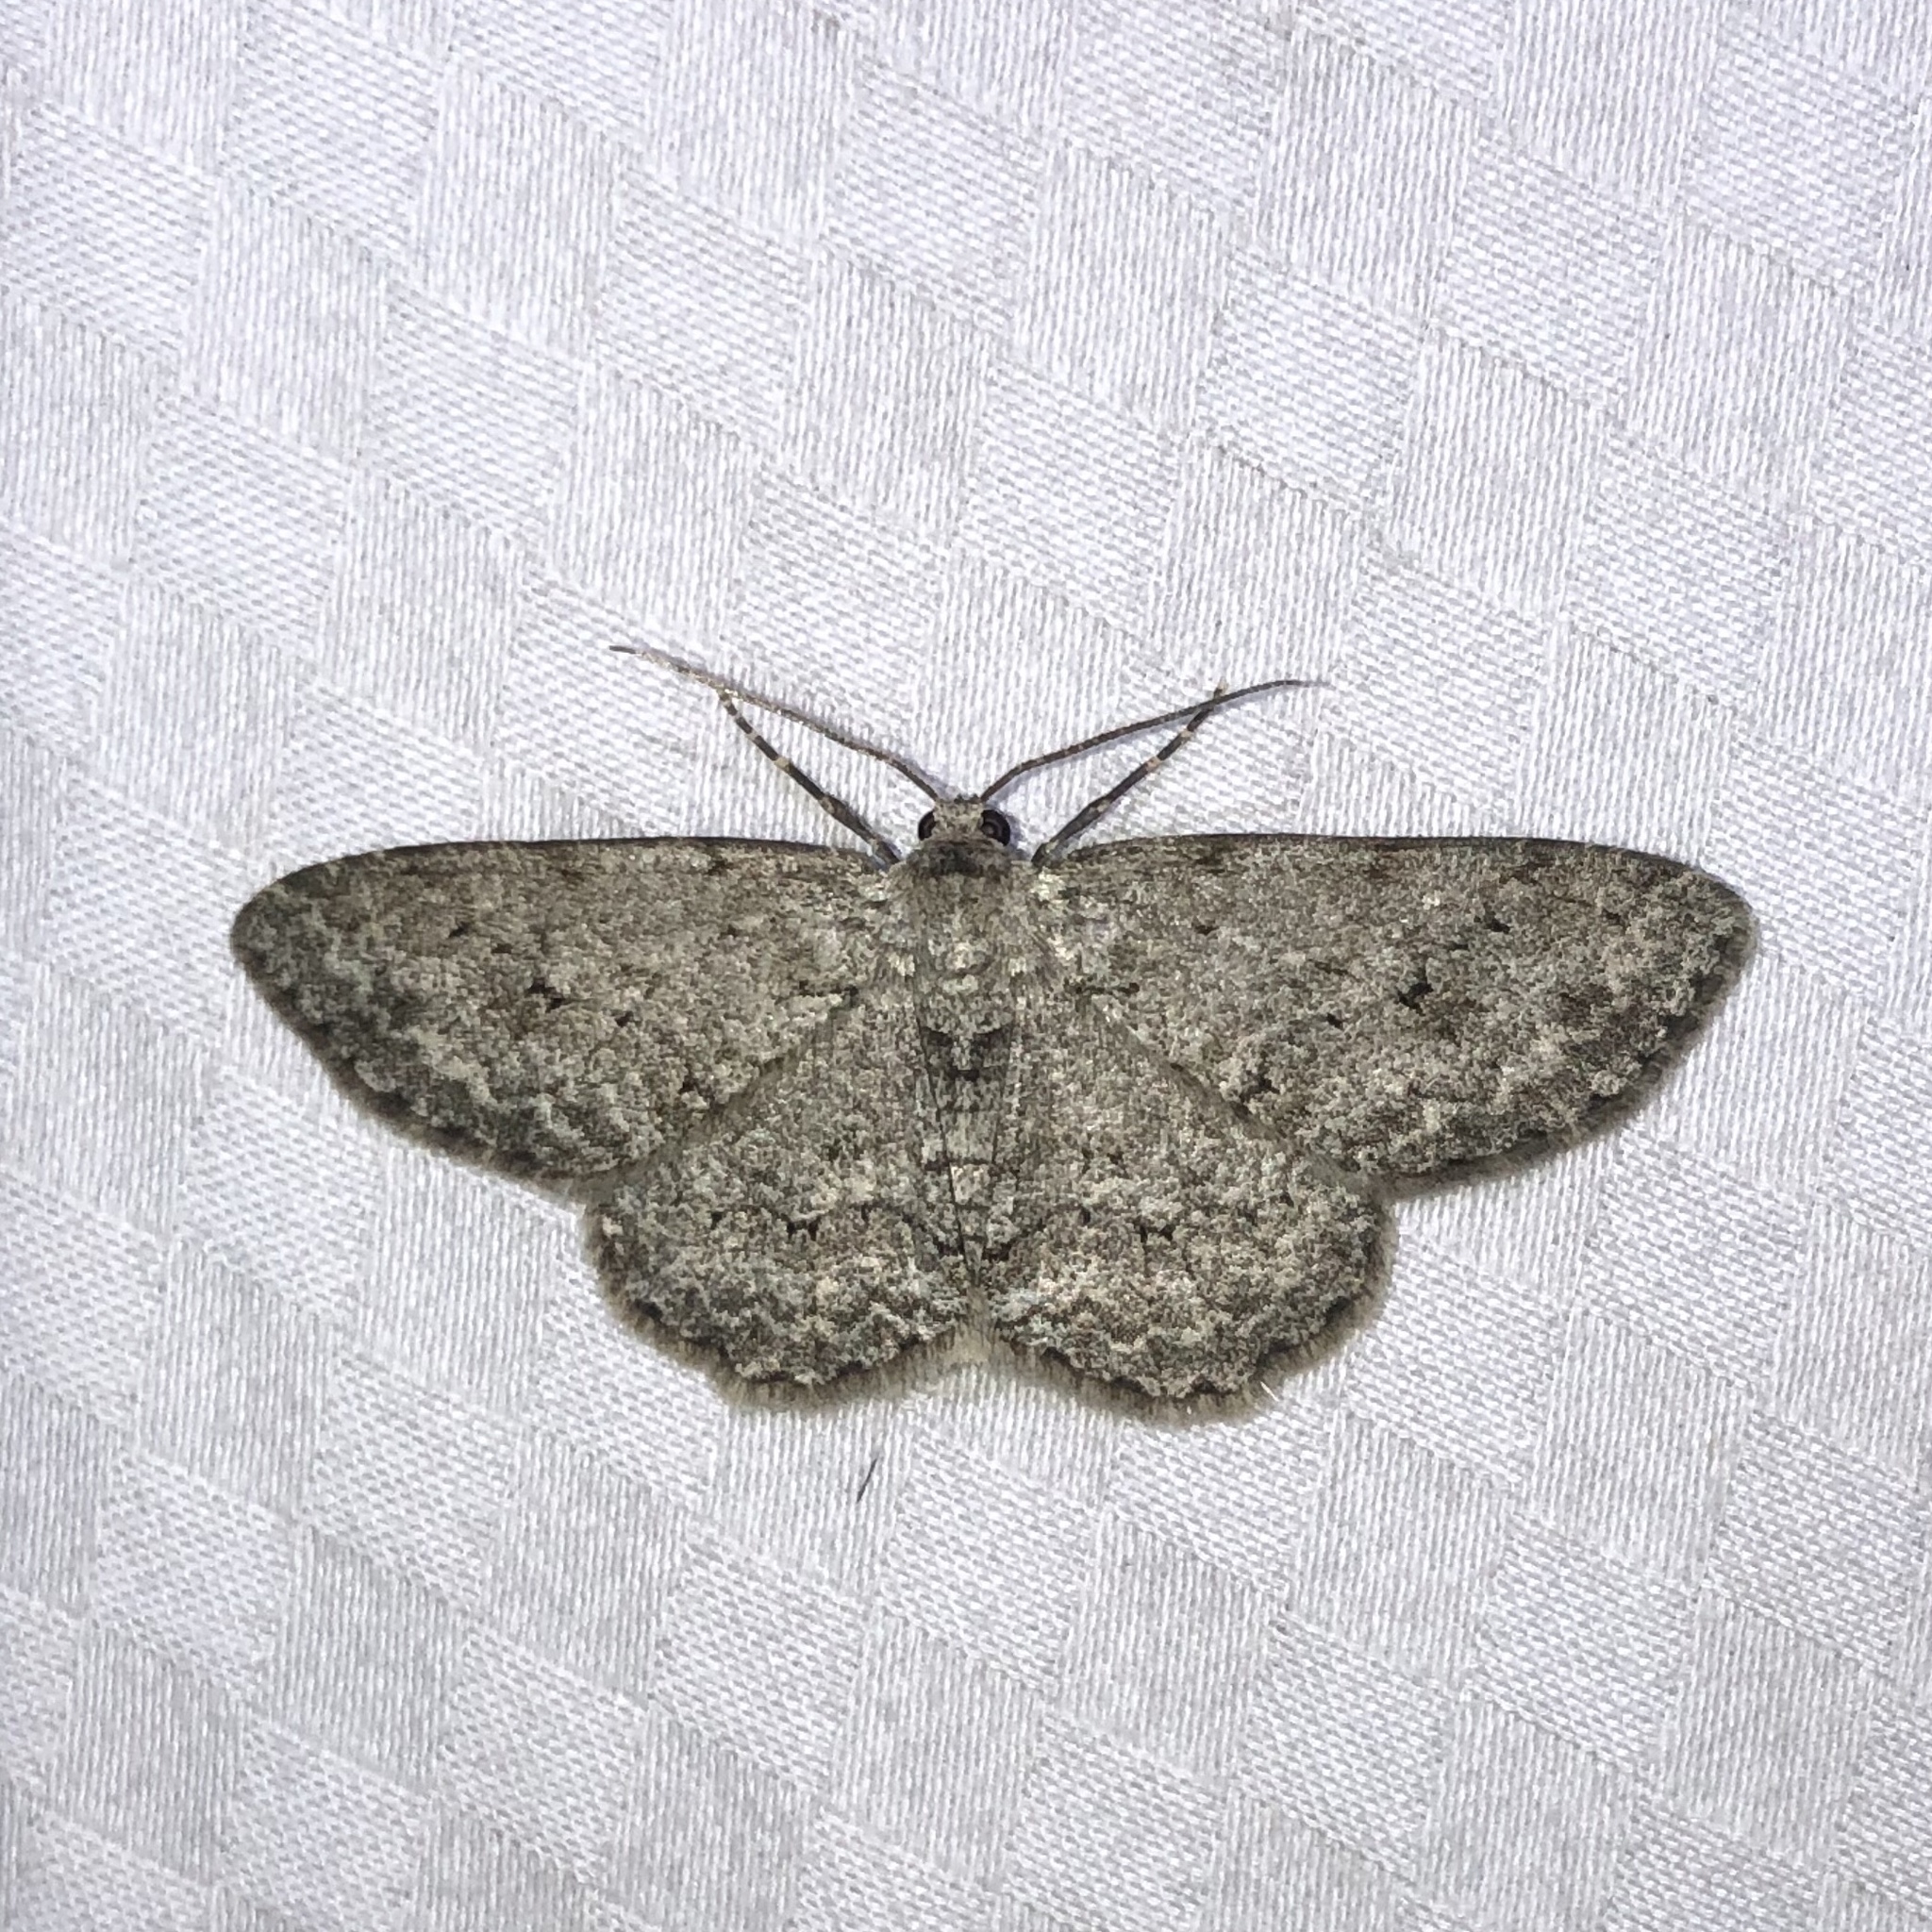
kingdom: Animalia
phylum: Arthropoda
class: Insecta
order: Lepidoptera
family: Geometridae
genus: Ectropis
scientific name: Ectropis crepuscularia
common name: Engrailed
